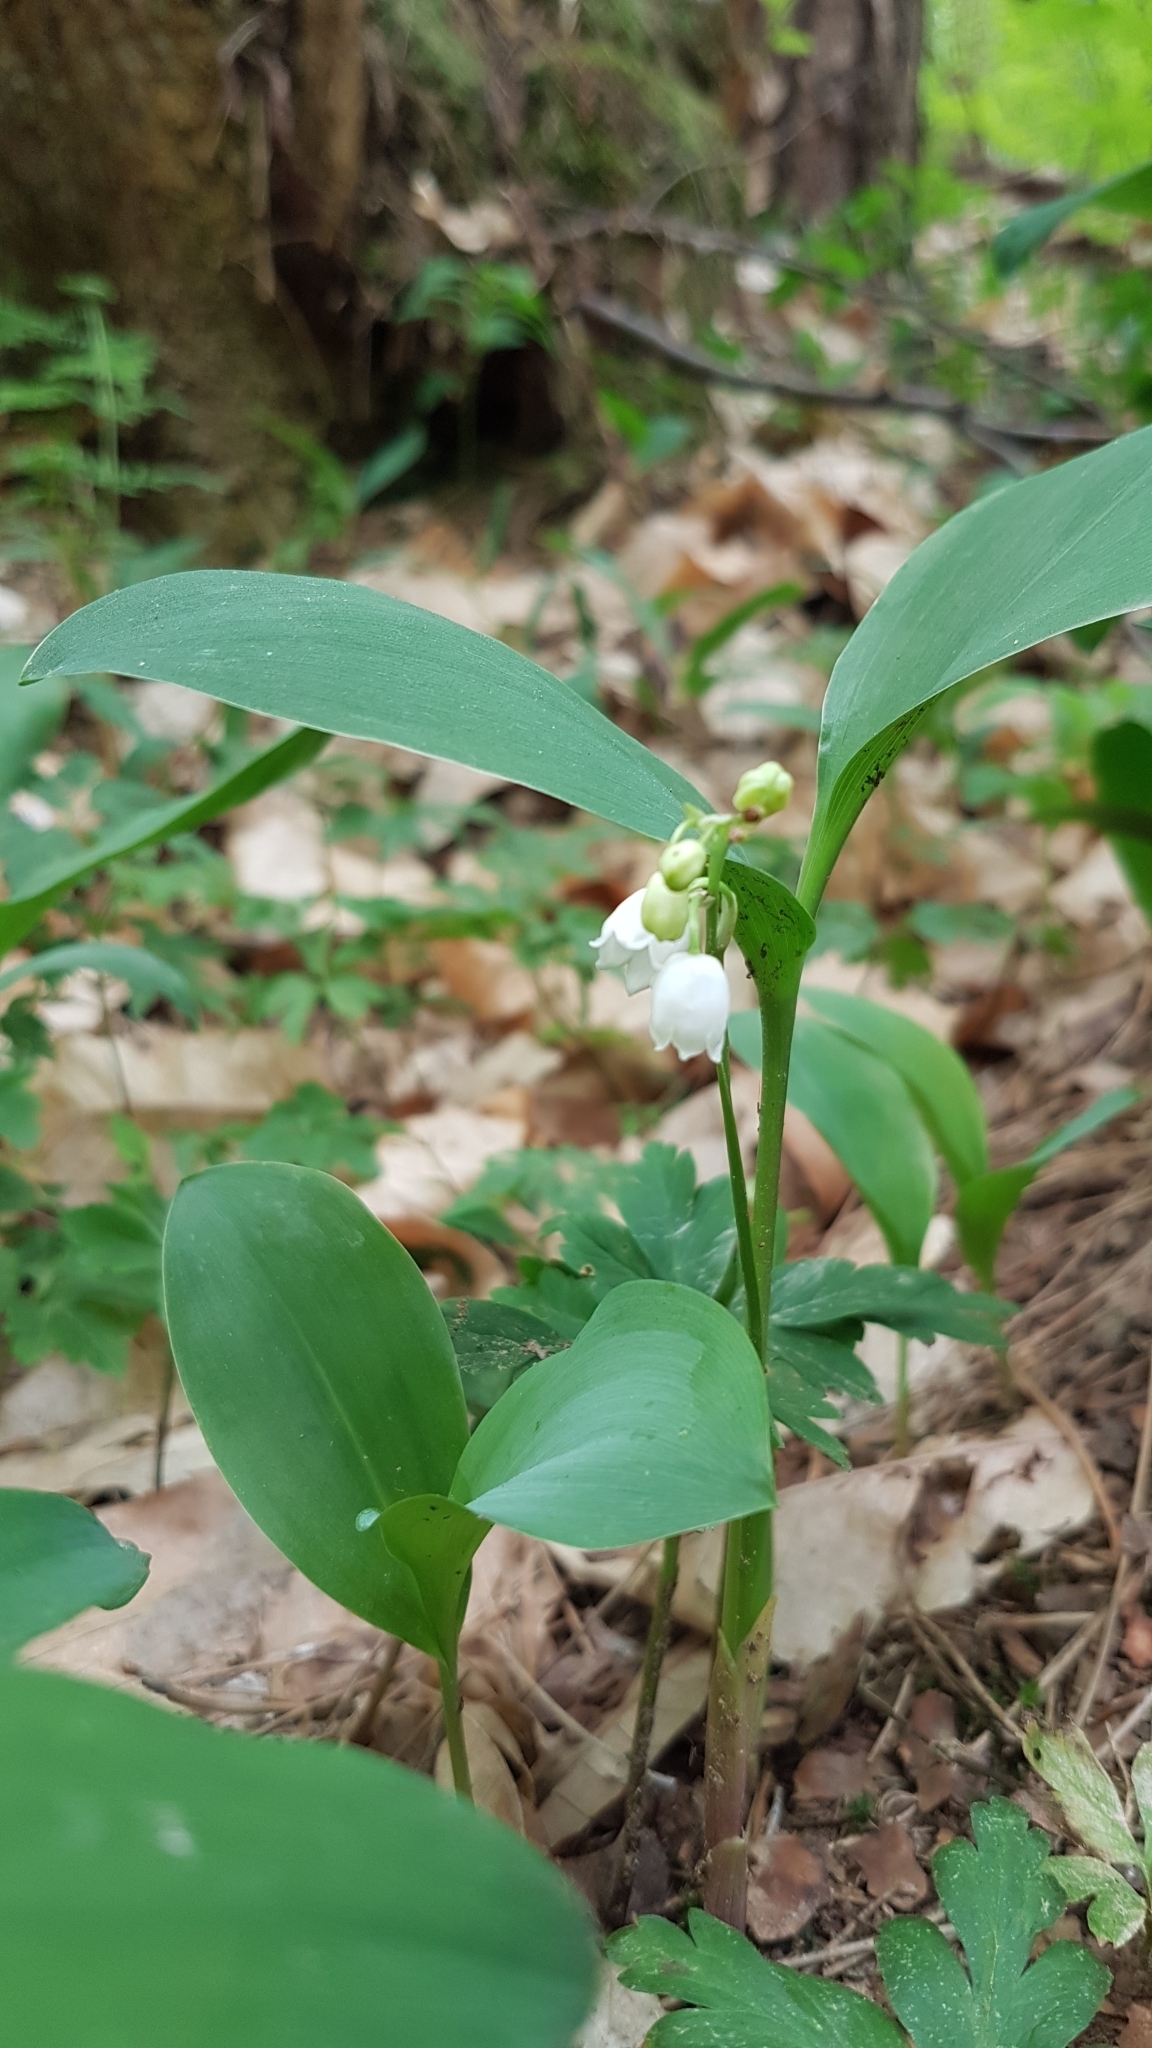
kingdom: Plantae
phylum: Tracheophyta
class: Liliopsida
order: Asparagales
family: Asparagaceae
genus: Convallaria
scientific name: Convallaria majalis
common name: Lily-of-the-valley
